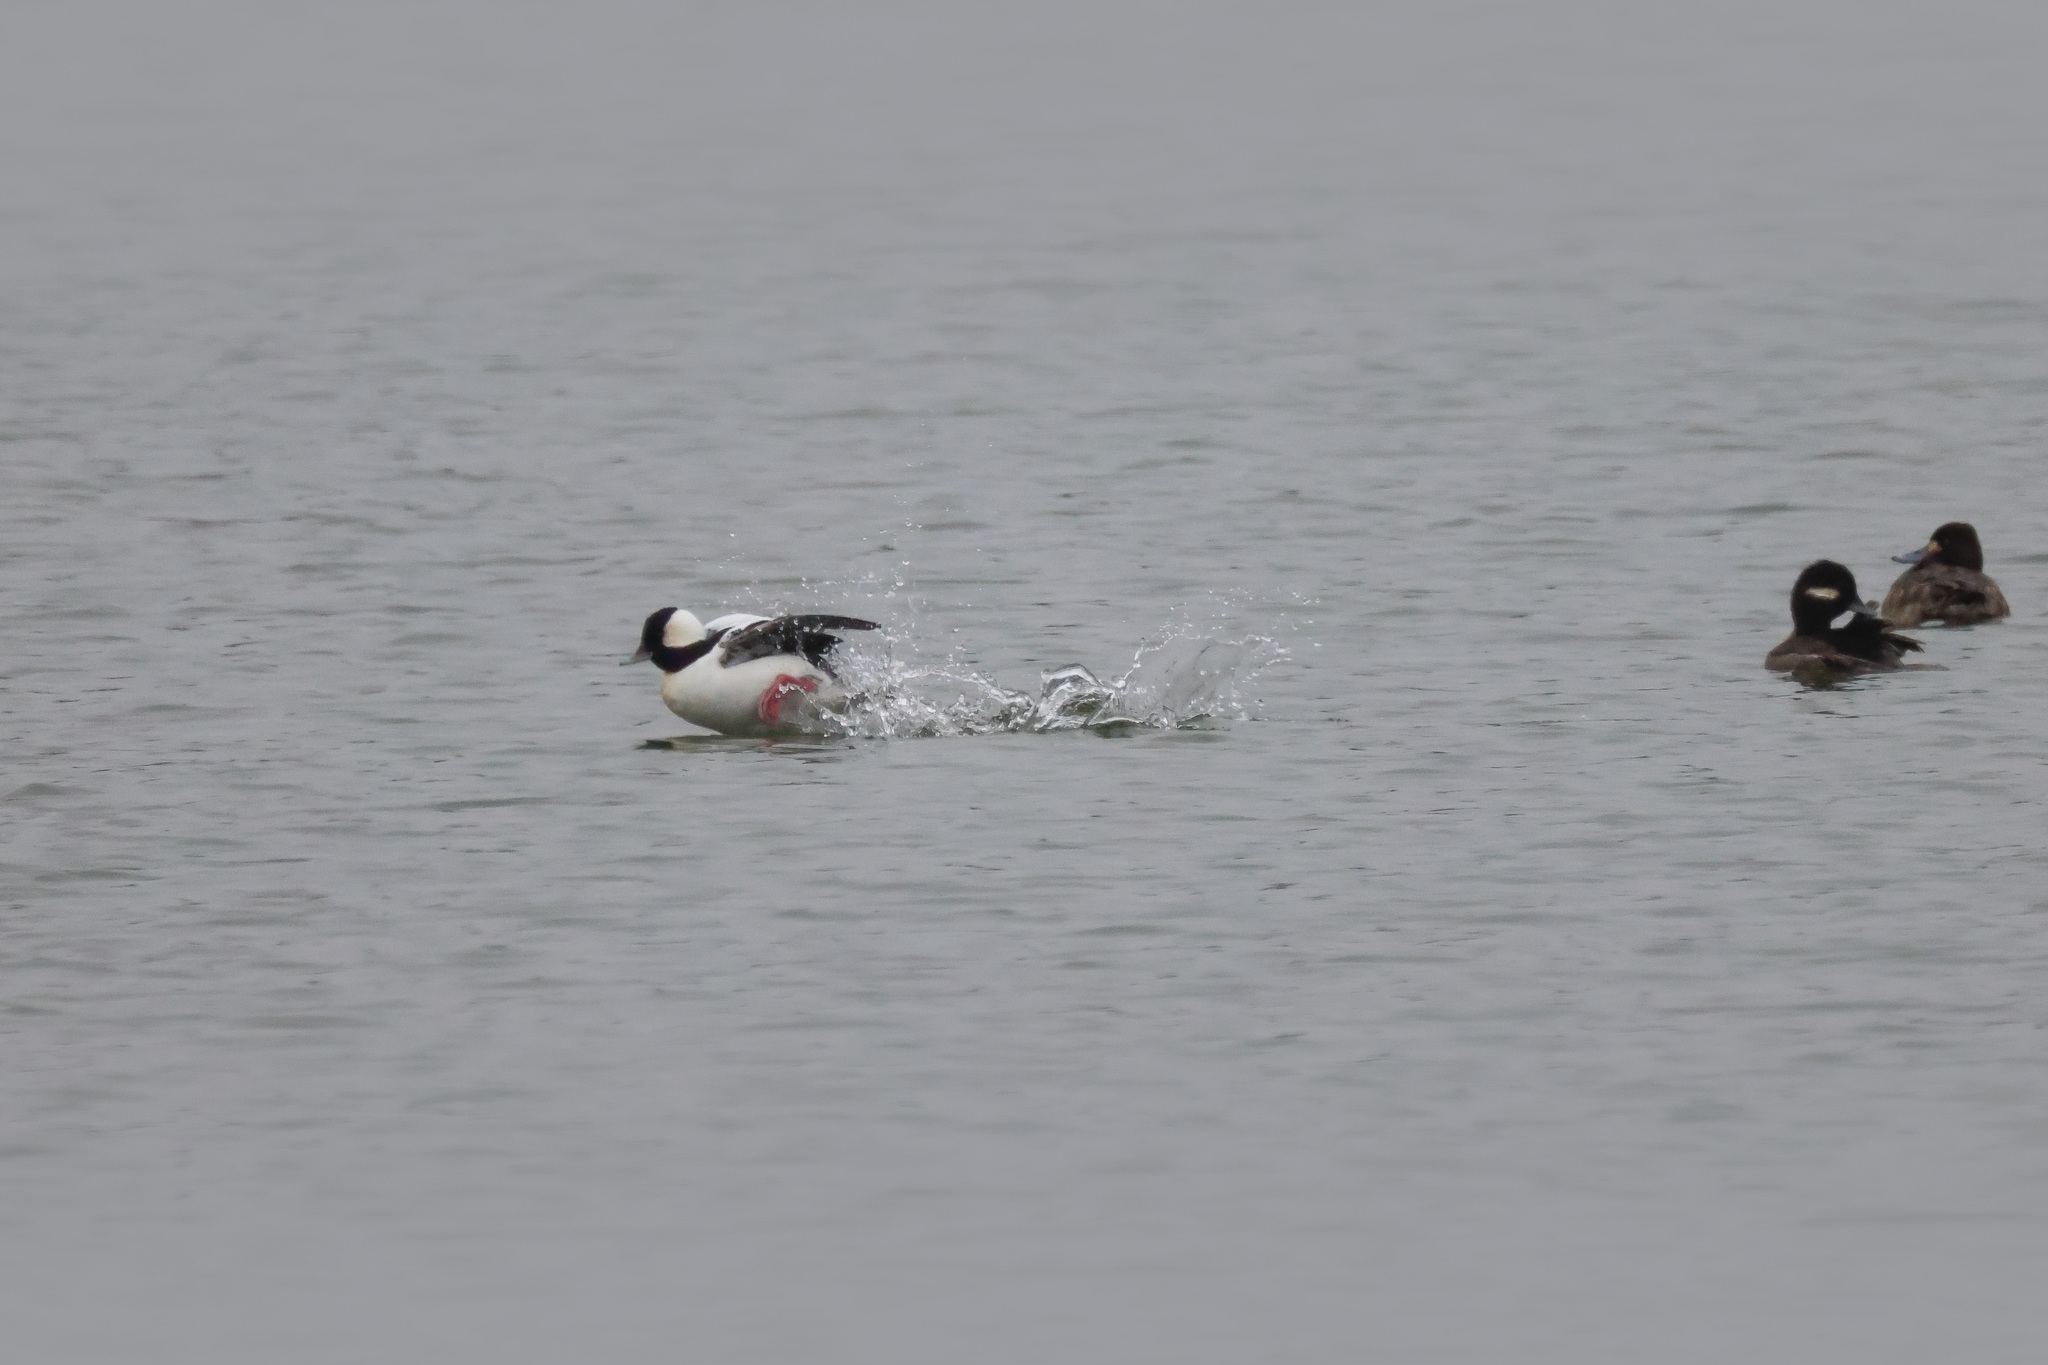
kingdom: Animalia
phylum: Chordata
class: Aves
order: Anseriformes
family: Anatidae
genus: Bucephala
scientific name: Bucephala albeola
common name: Bufflehead
